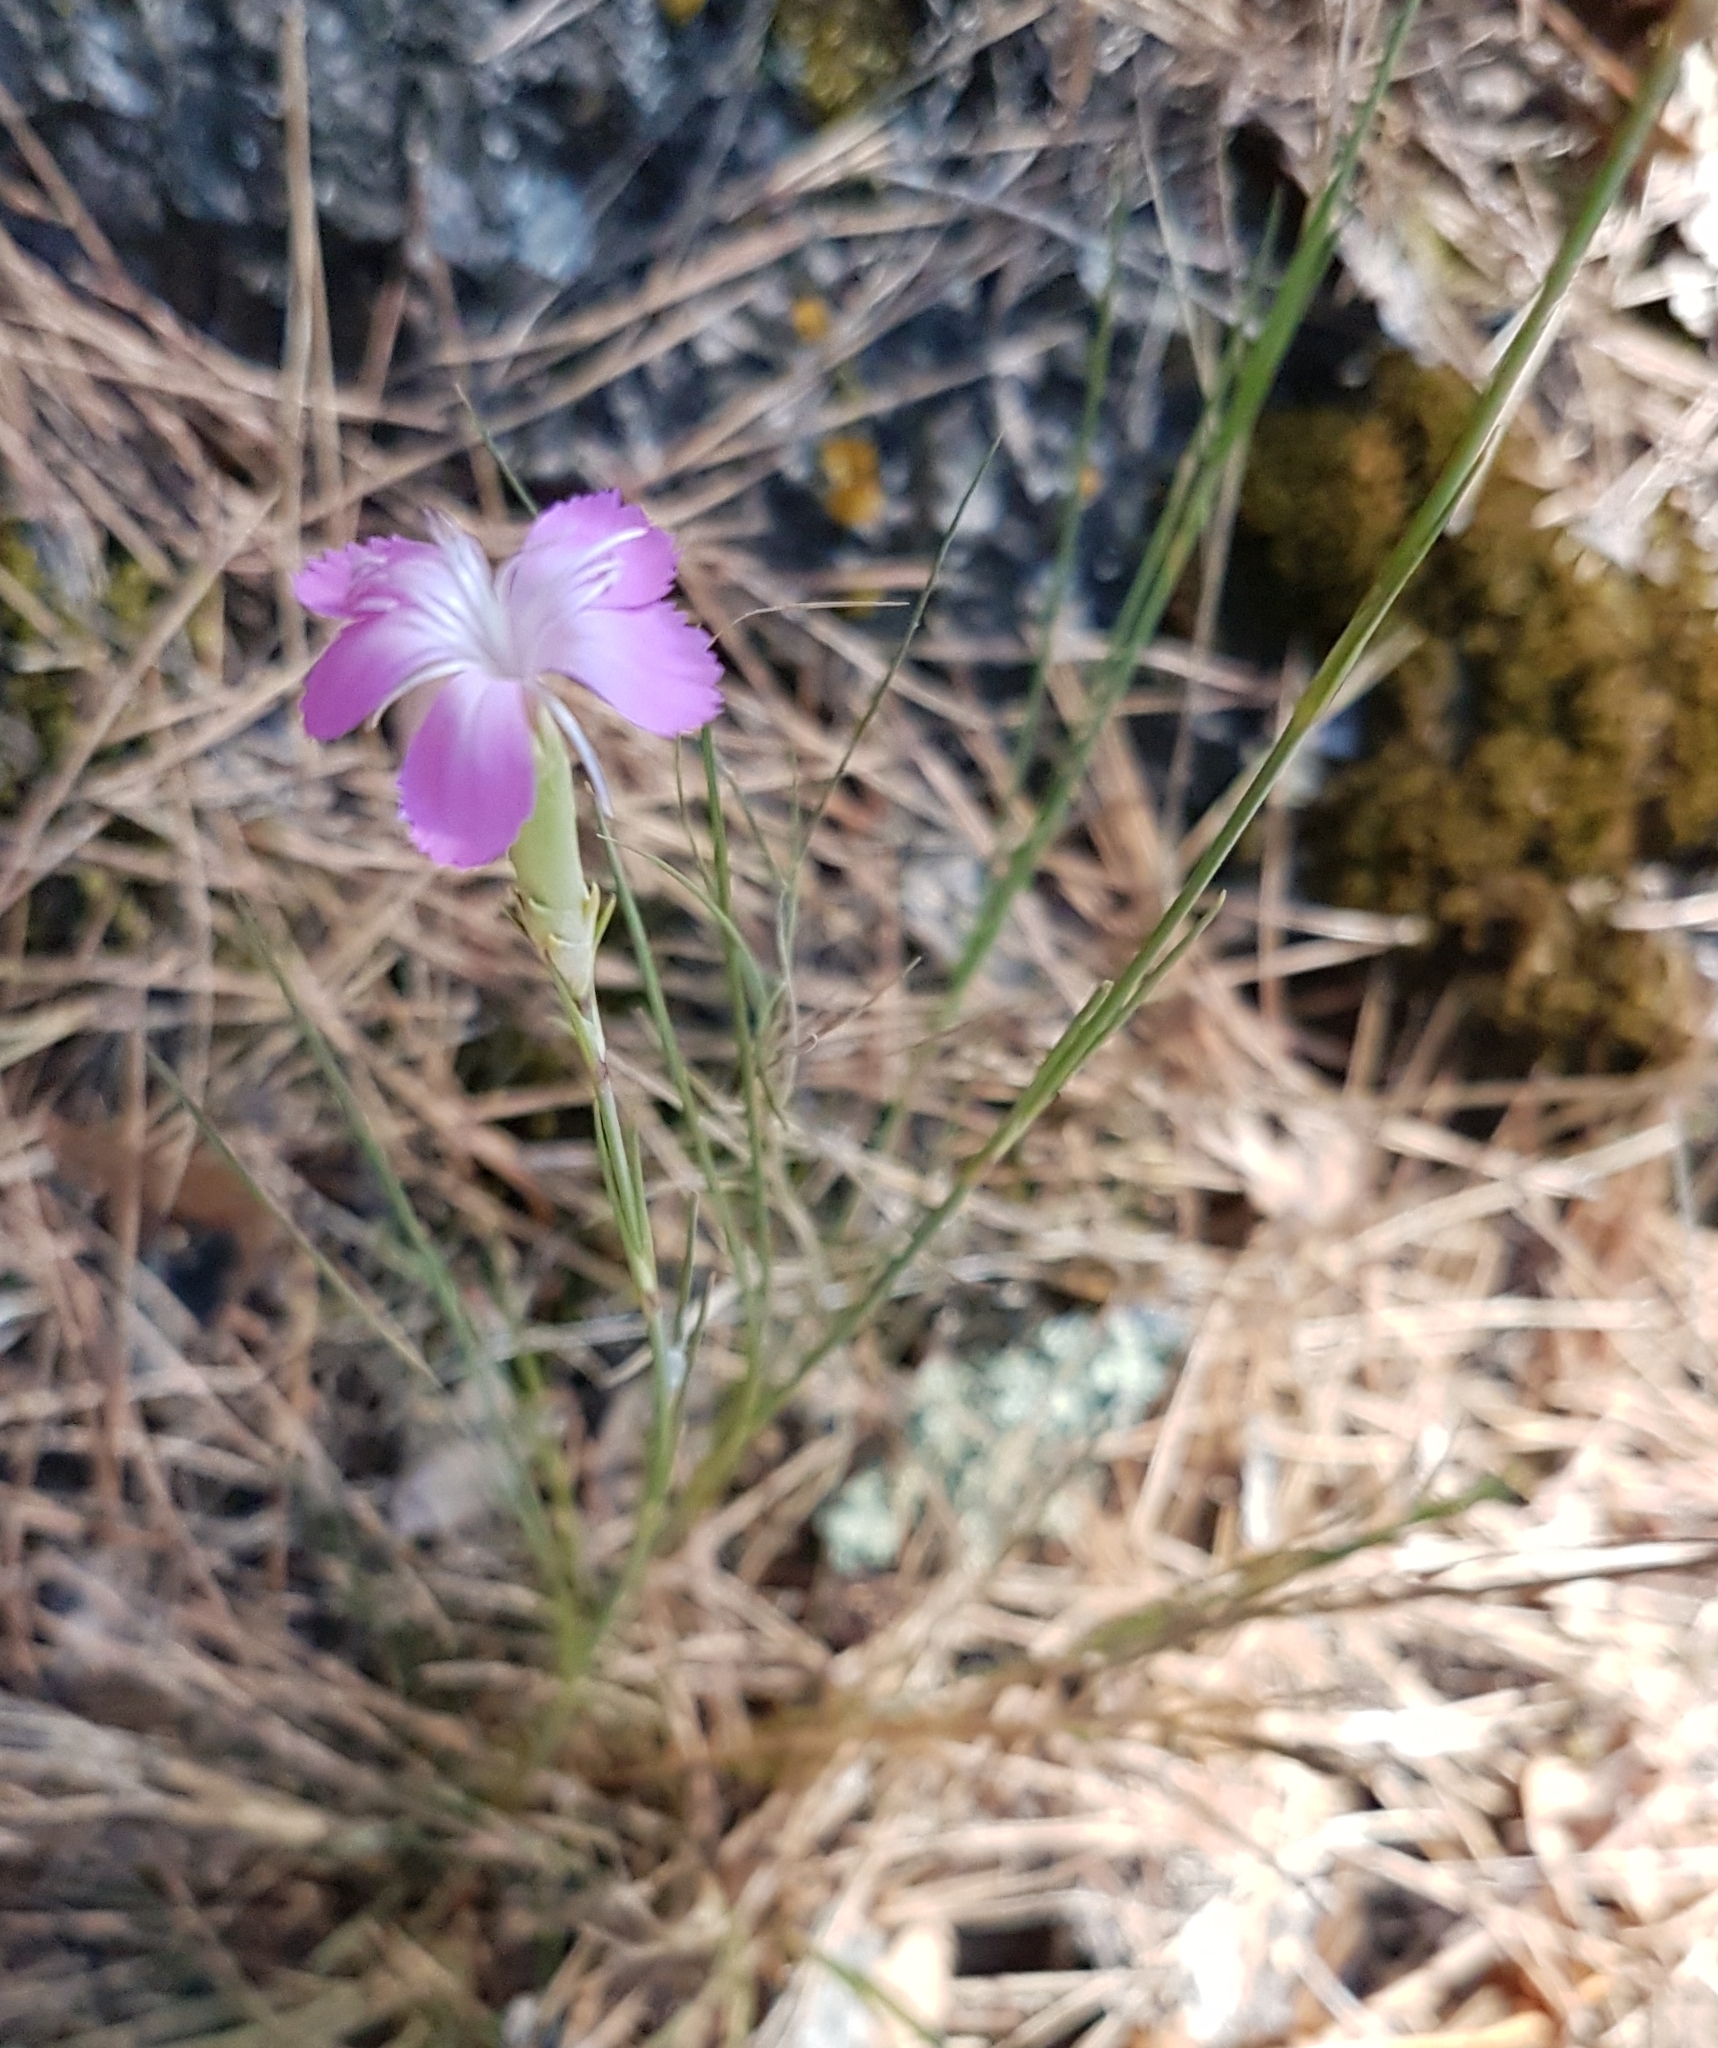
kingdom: Plantae
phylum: Tracheophyta
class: Magnoliopsida
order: Caryophyllales
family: Caryophyllaceae
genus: Dianthus
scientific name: Dianthus subacaulis
